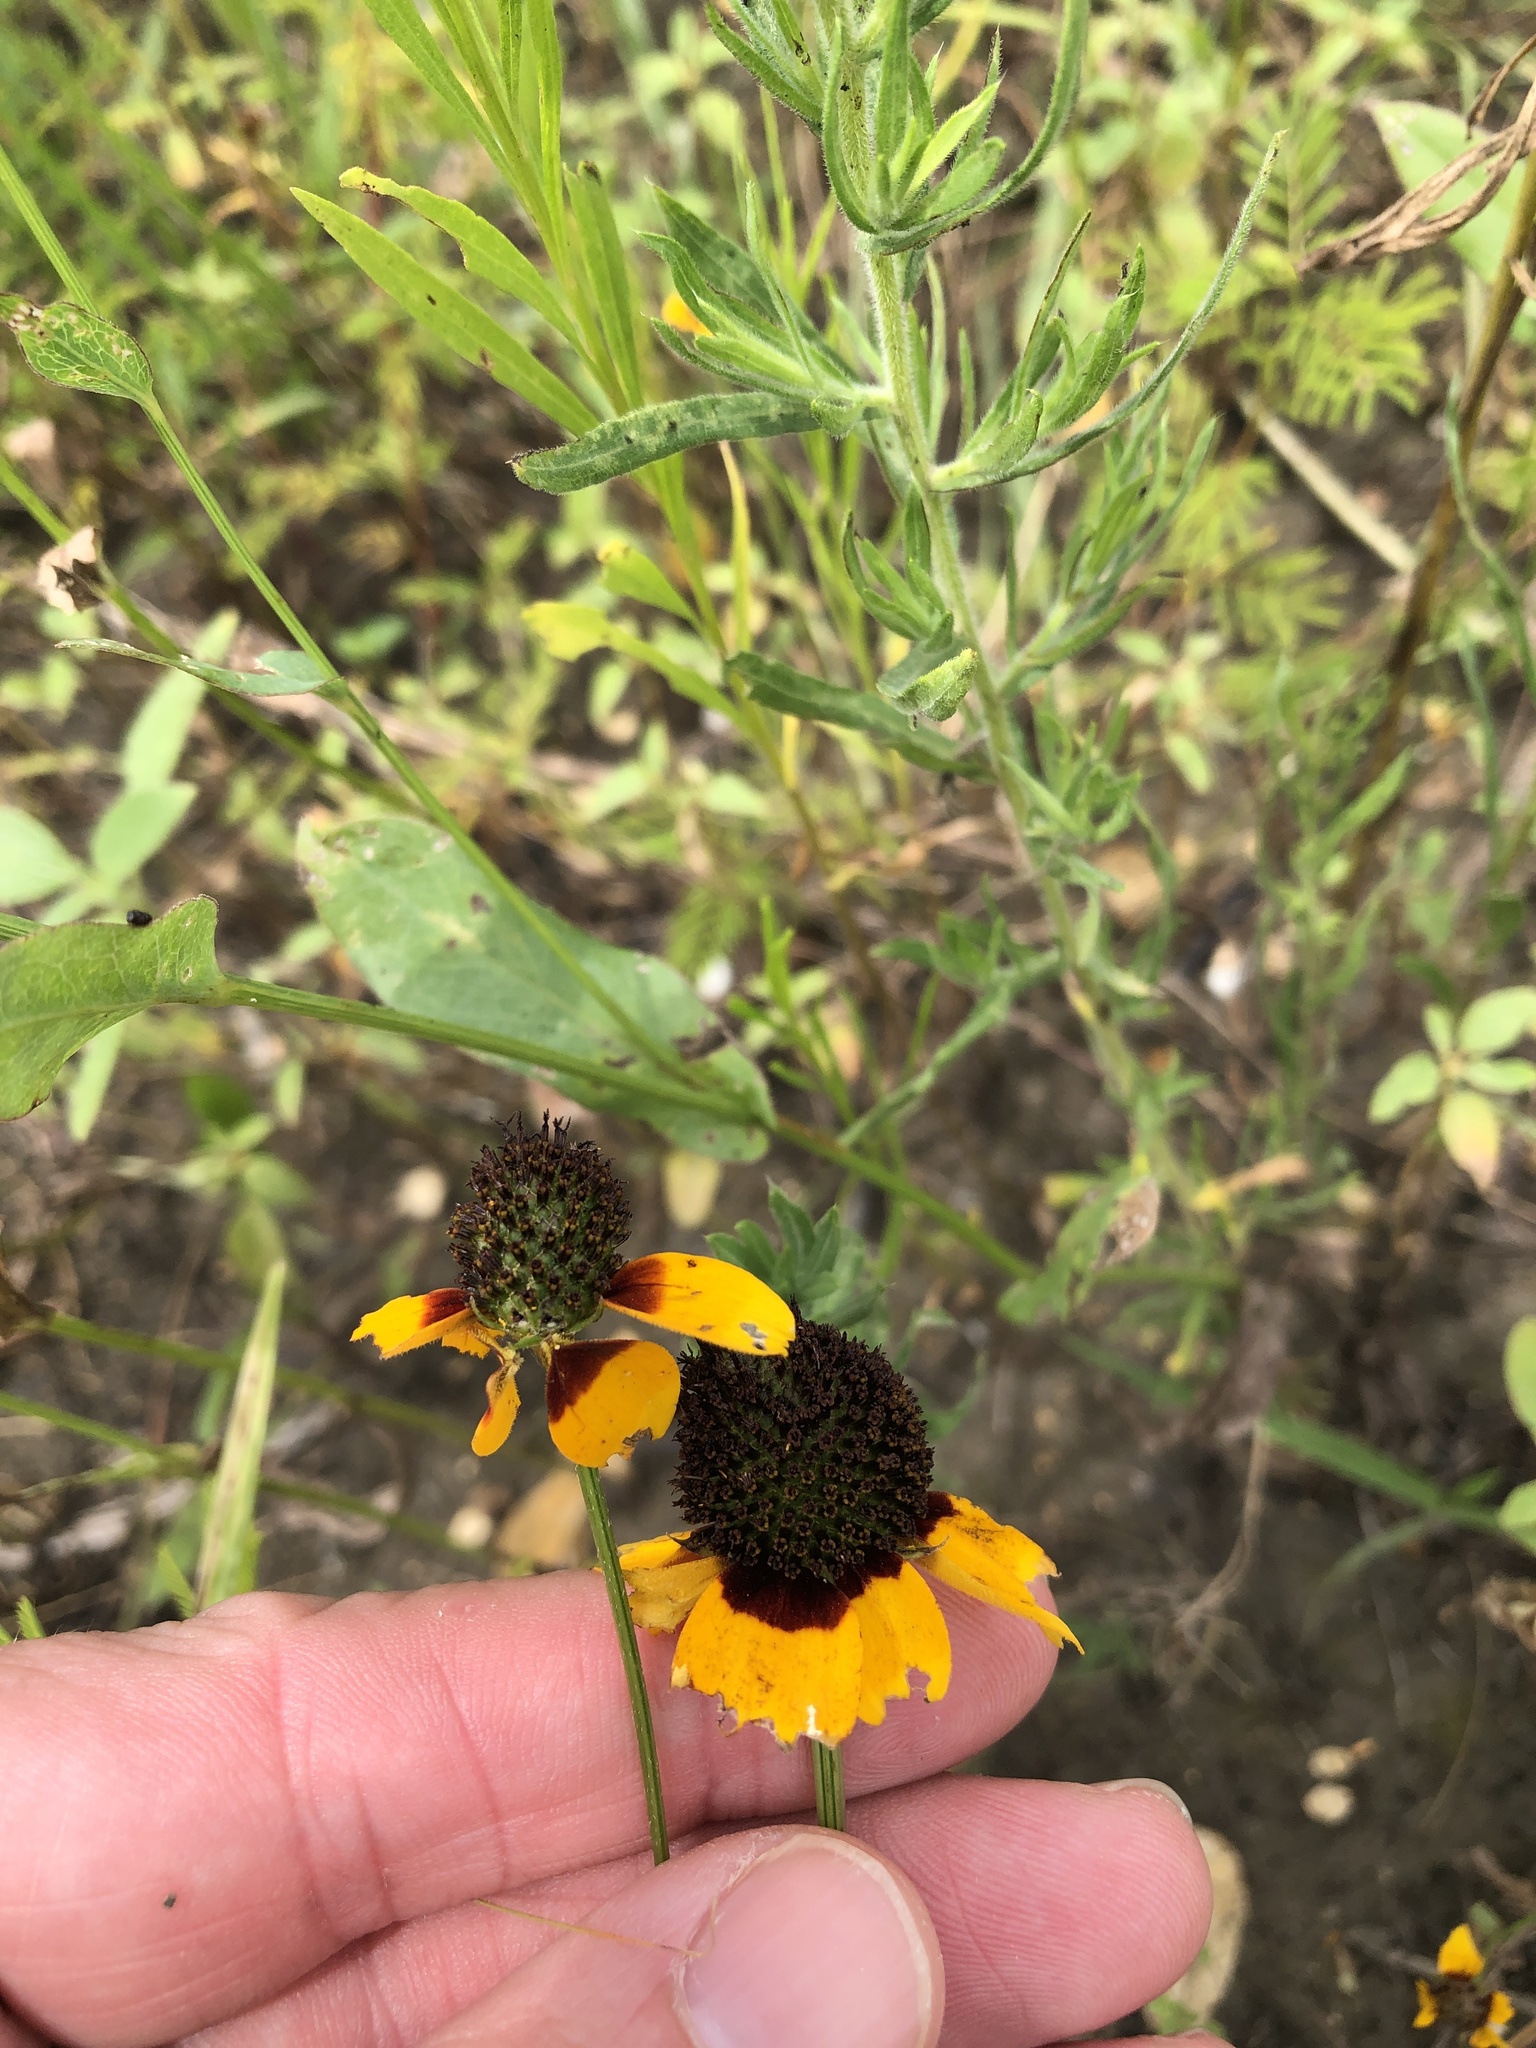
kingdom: Plantae
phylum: Tracheophyta
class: Magnoliopsida
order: Asterales
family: Asteraceae
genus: Rudbeckia
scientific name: Rudbeckia amplexicaulis
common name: Clasping-leaf coneflower
